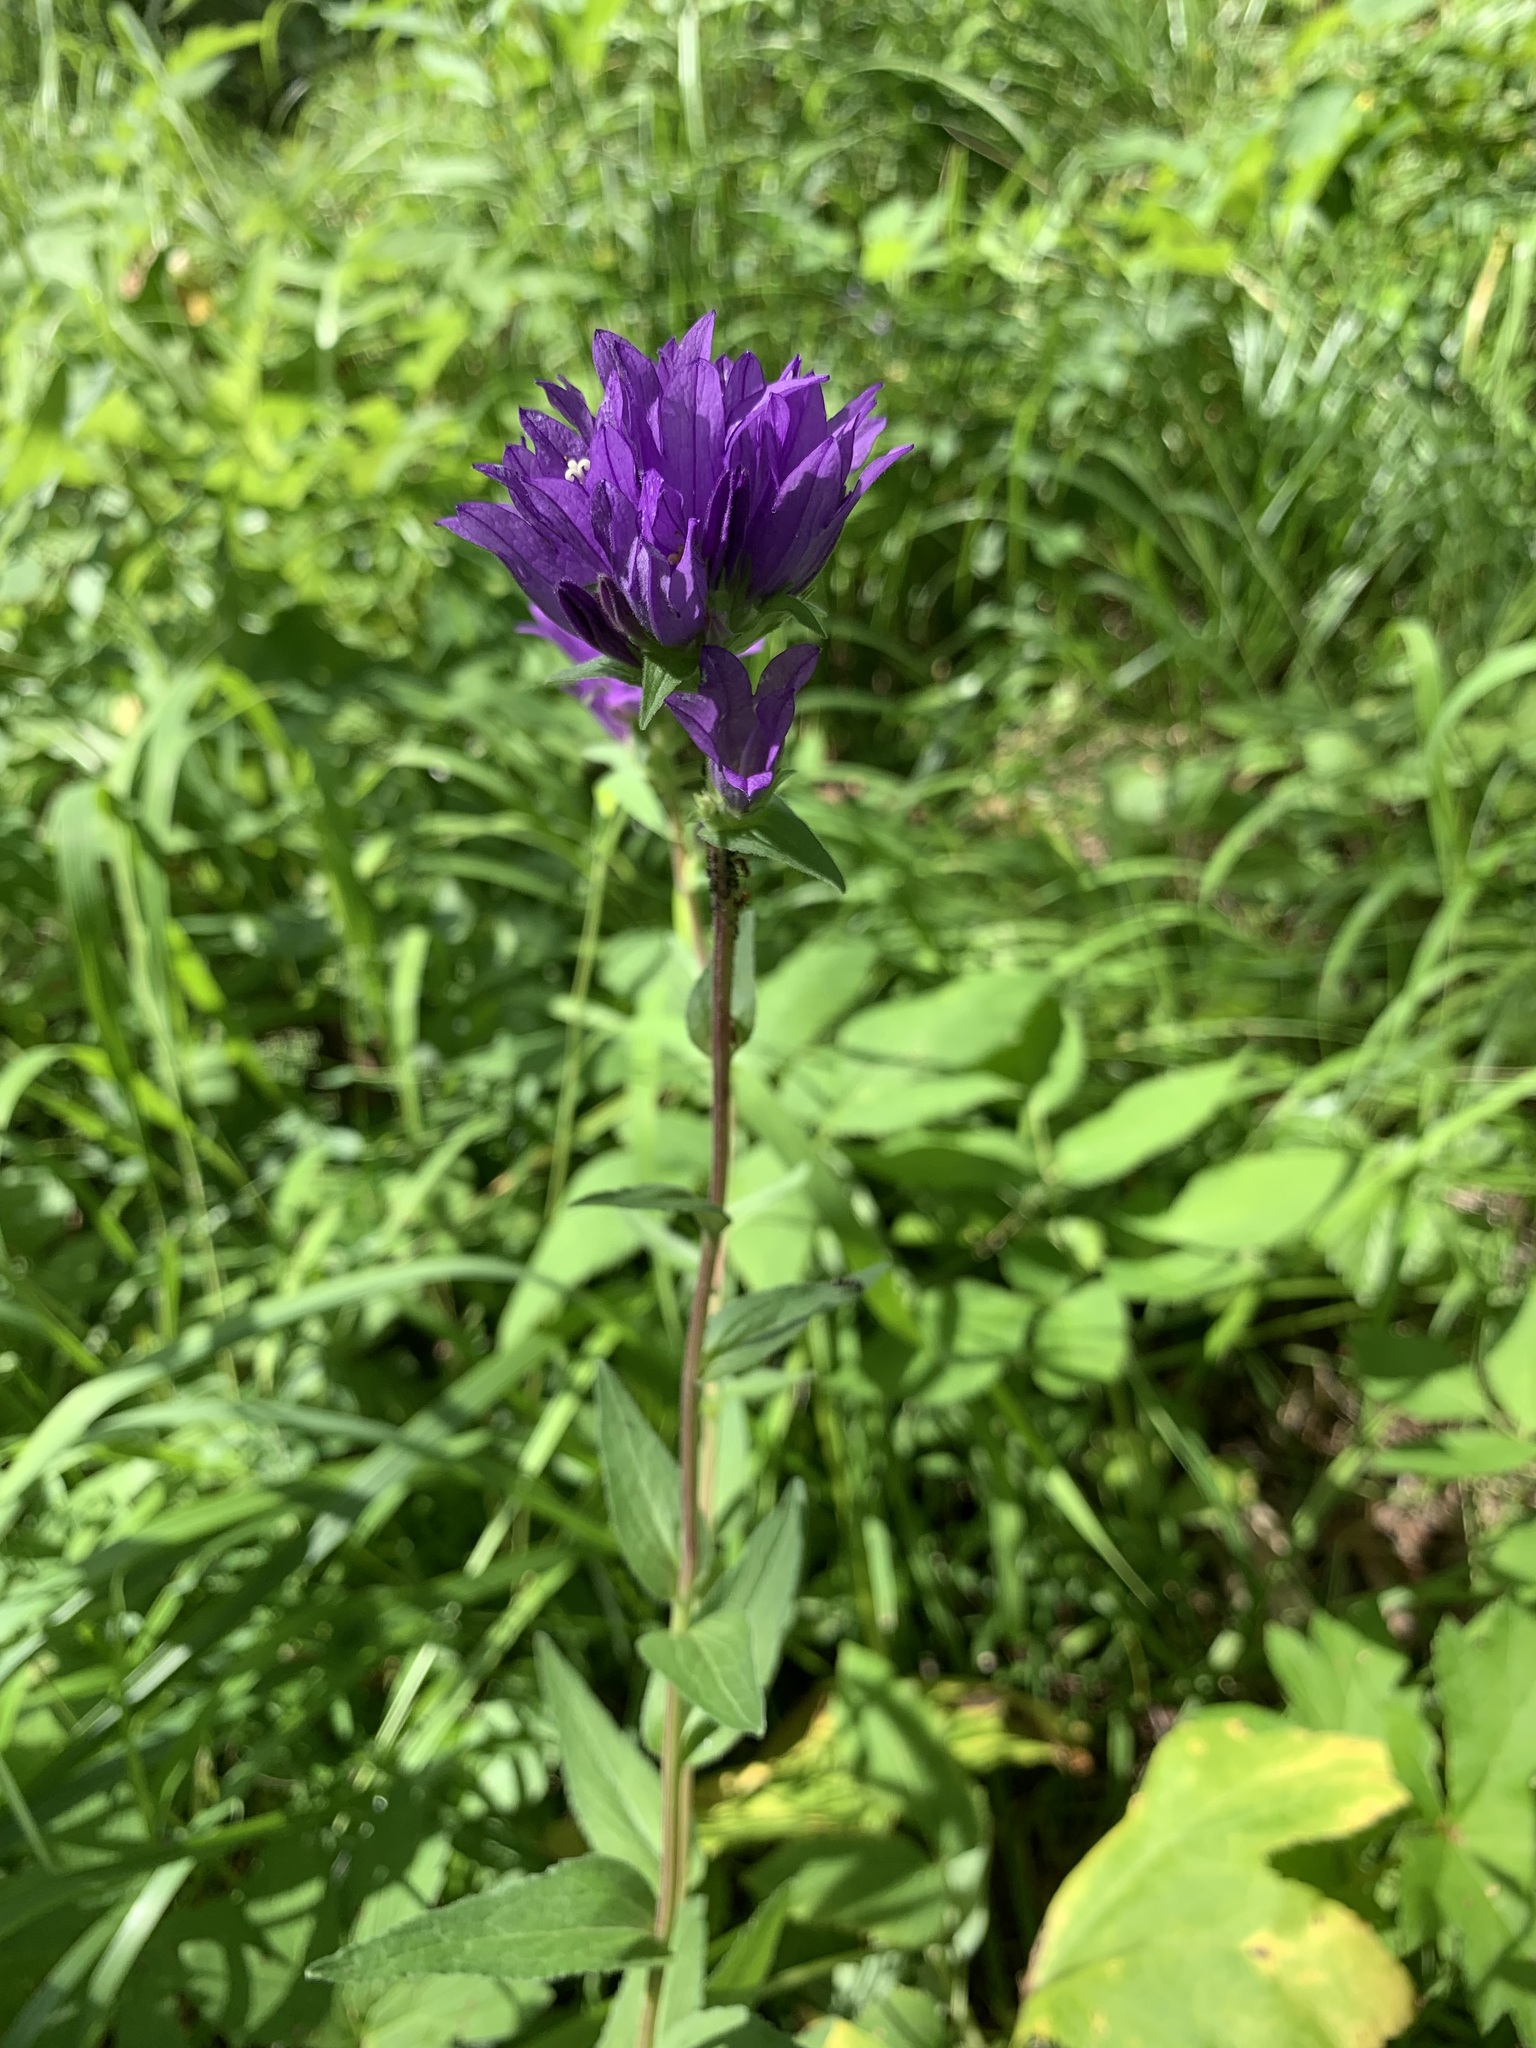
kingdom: Plantae
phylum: Tracheophyta
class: Magnoliopsida
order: Asterales
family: Campanulaceae
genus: Campanula
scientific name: Campanula glomerata
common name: Clustered bellflower
